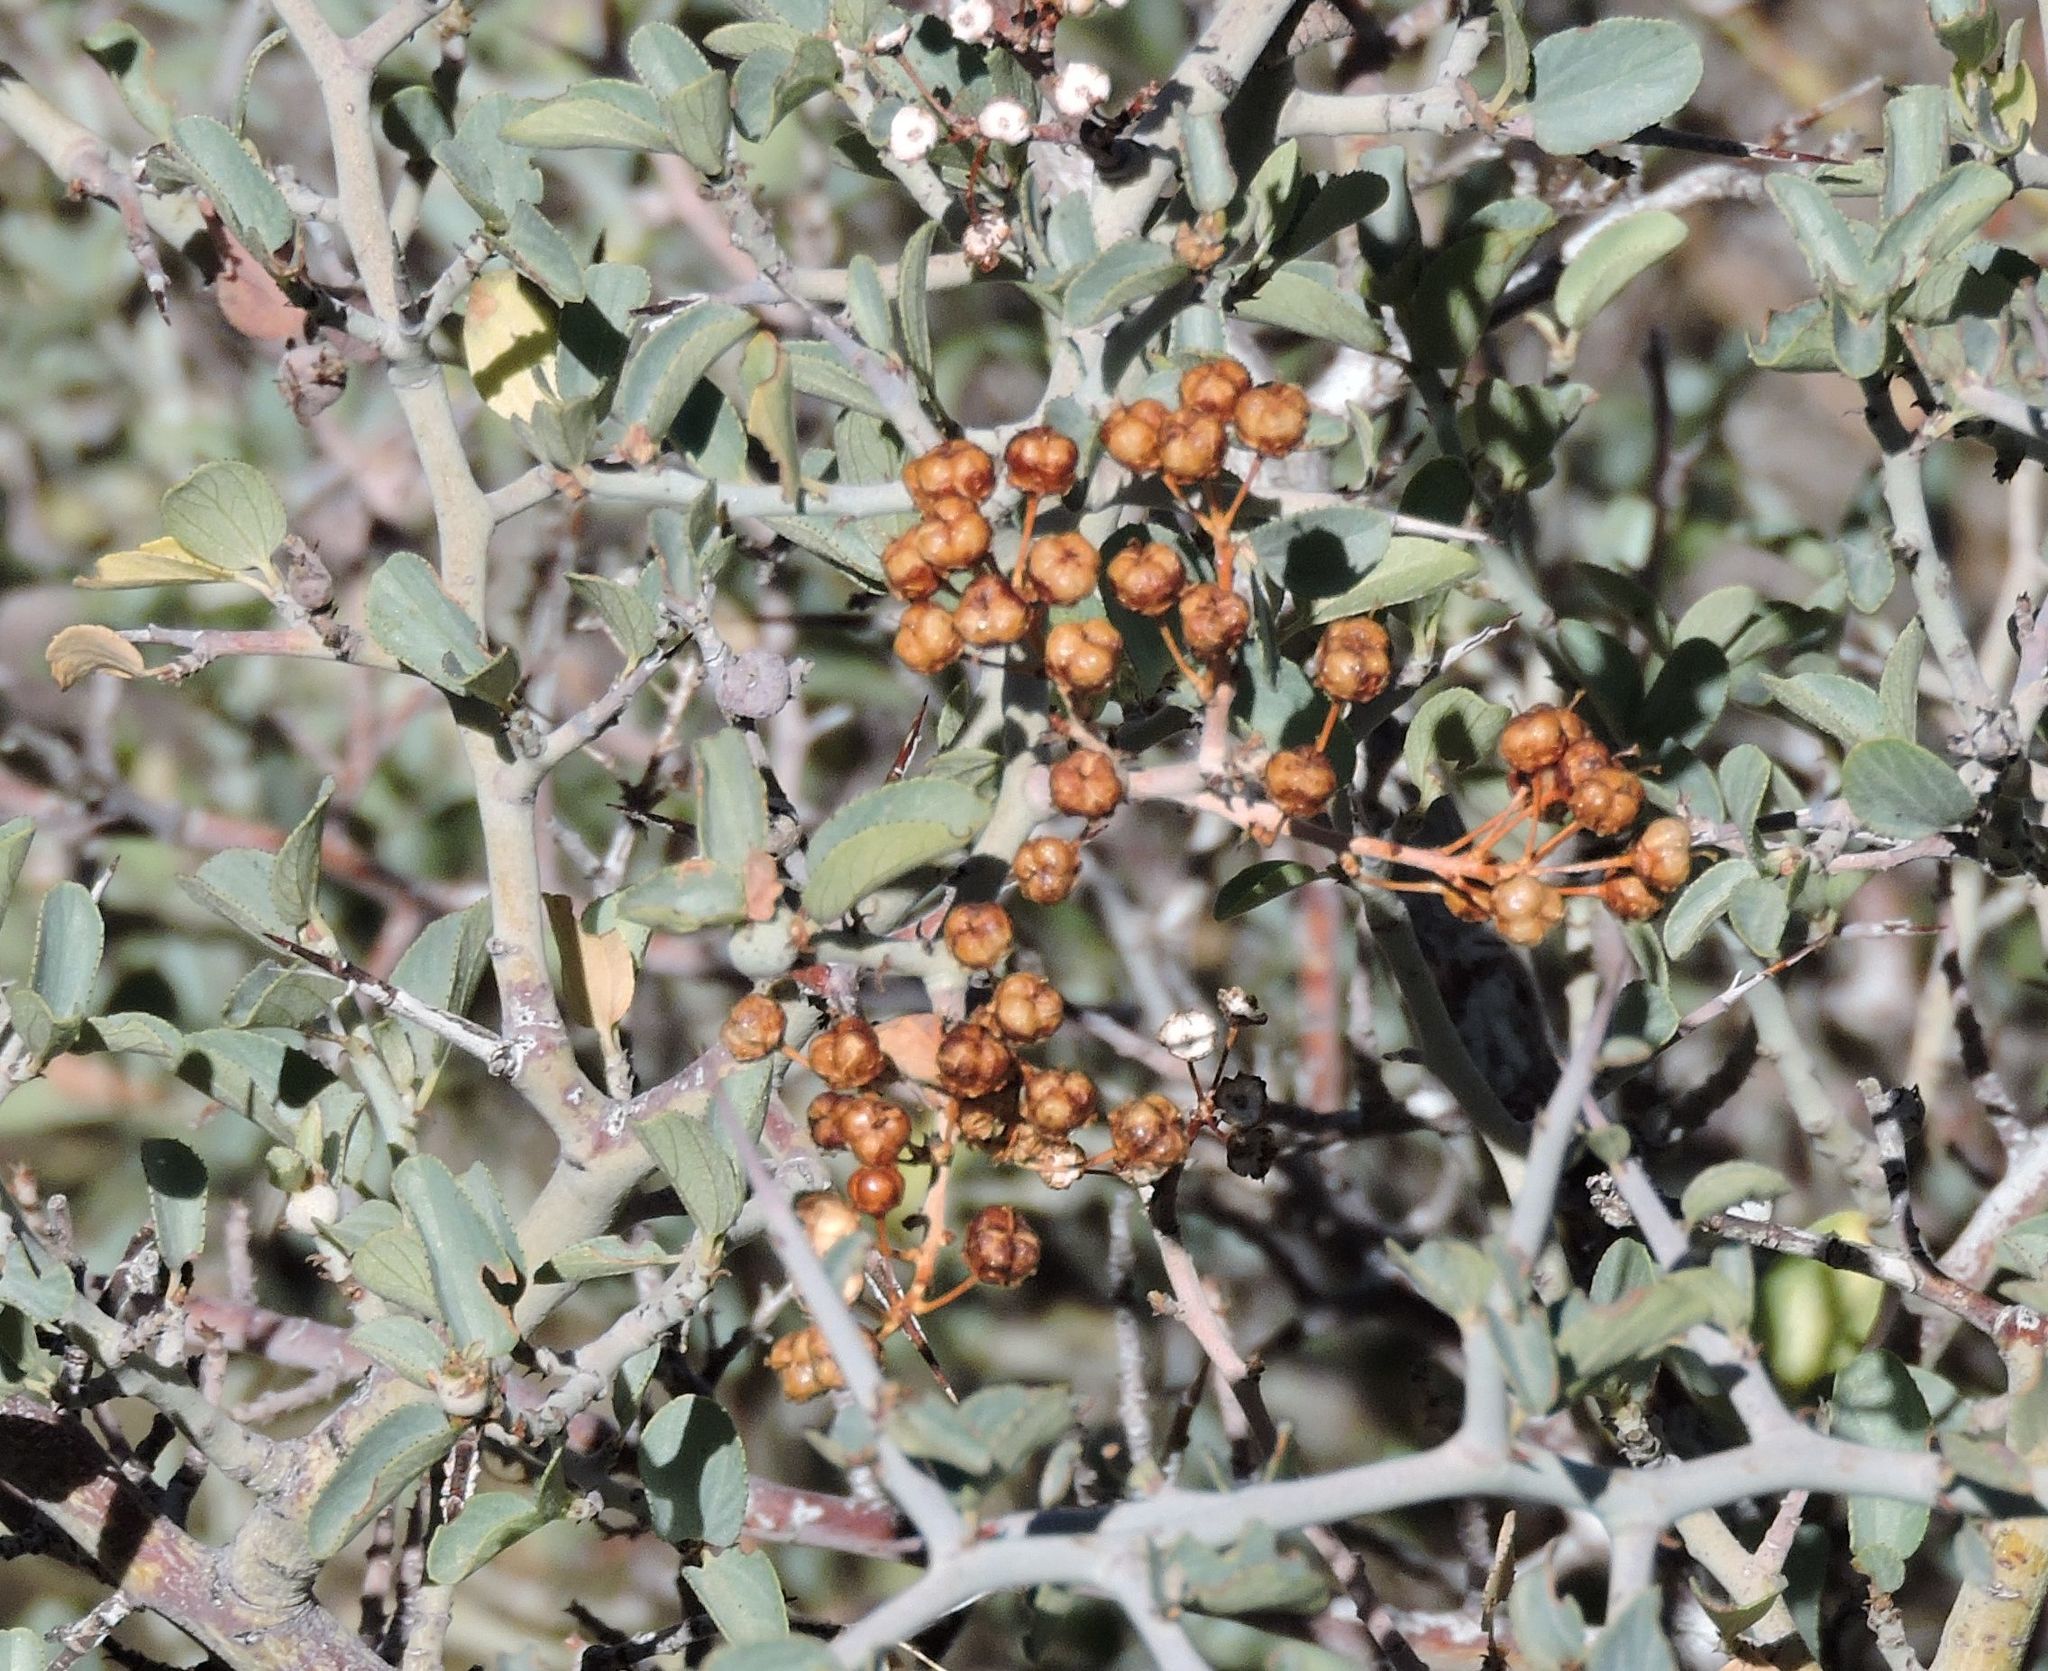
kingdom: Plantae
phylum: Tracheophyta
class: Magnoliopsida
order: Rosales
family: Rhamnaceae
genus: Ceanothus
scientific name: Ceanothus cordulatus
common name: Mountain whitethorn
